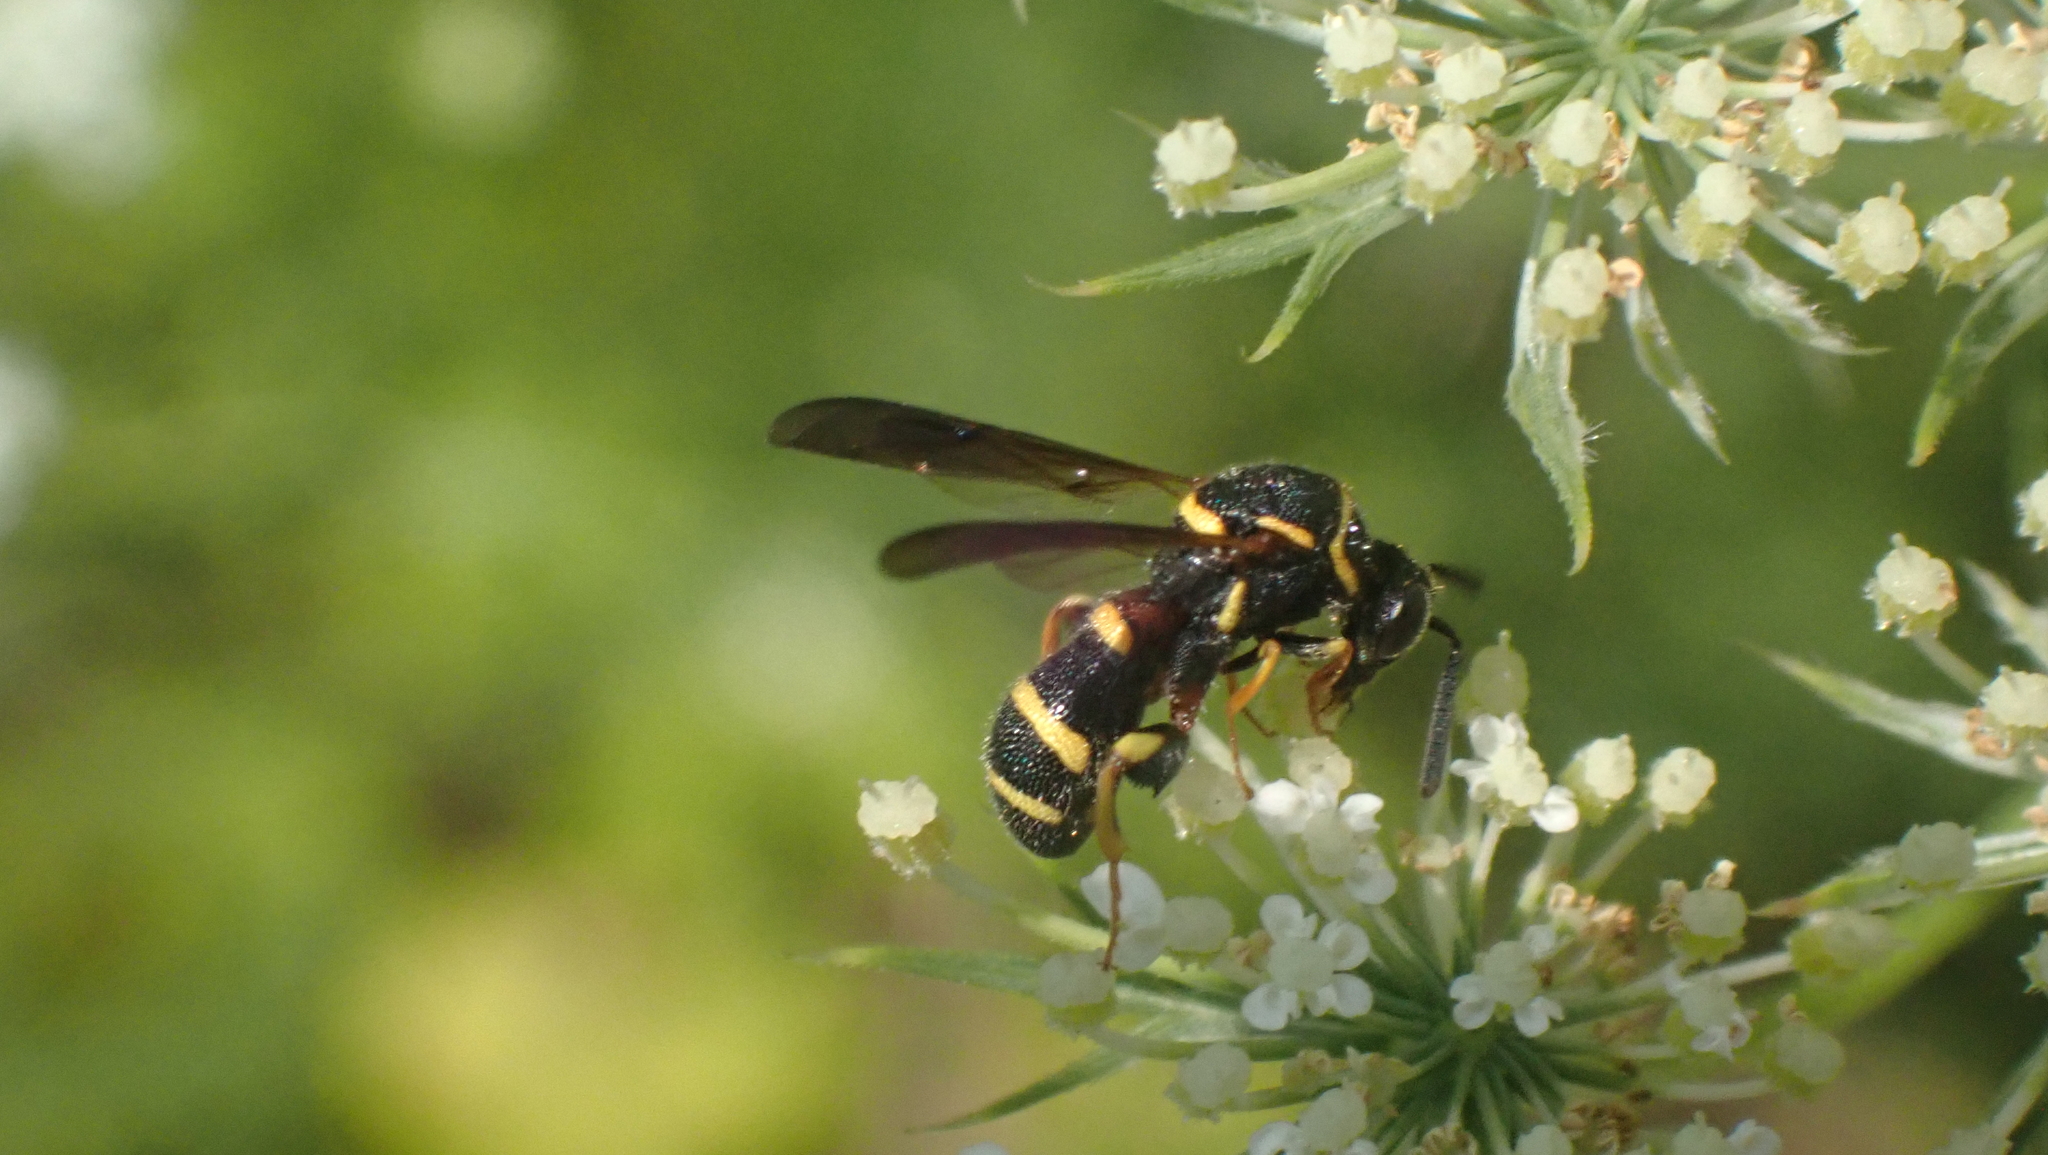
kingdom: Animalia
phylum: Arthropoda
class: Insecta
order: Hymenoptera
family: Leucospidae
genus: Leucospis
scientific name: Leucospis affinis
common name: Wasp
